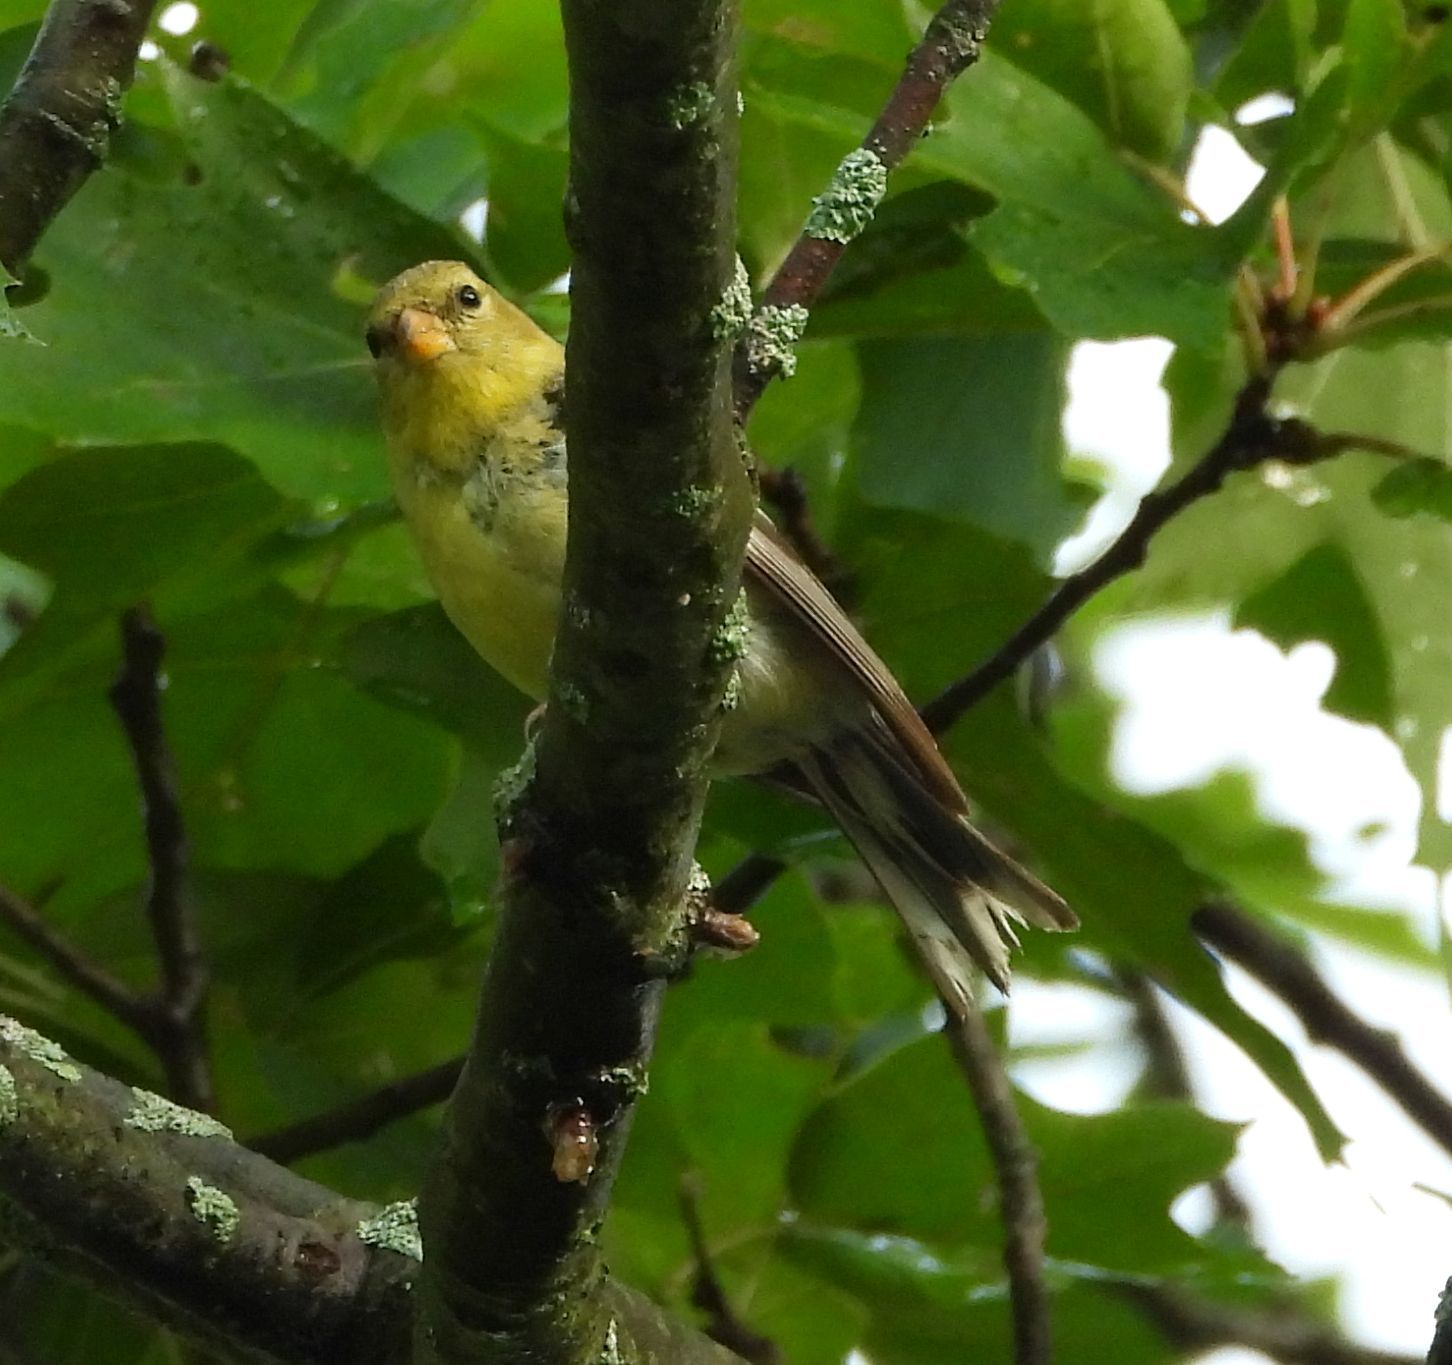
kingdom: Animalia
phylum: Chordata
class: Aves
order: Passeriformes
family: Fringillidae
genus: Spinus
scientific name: Spinus tristis
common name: American goldfinch
